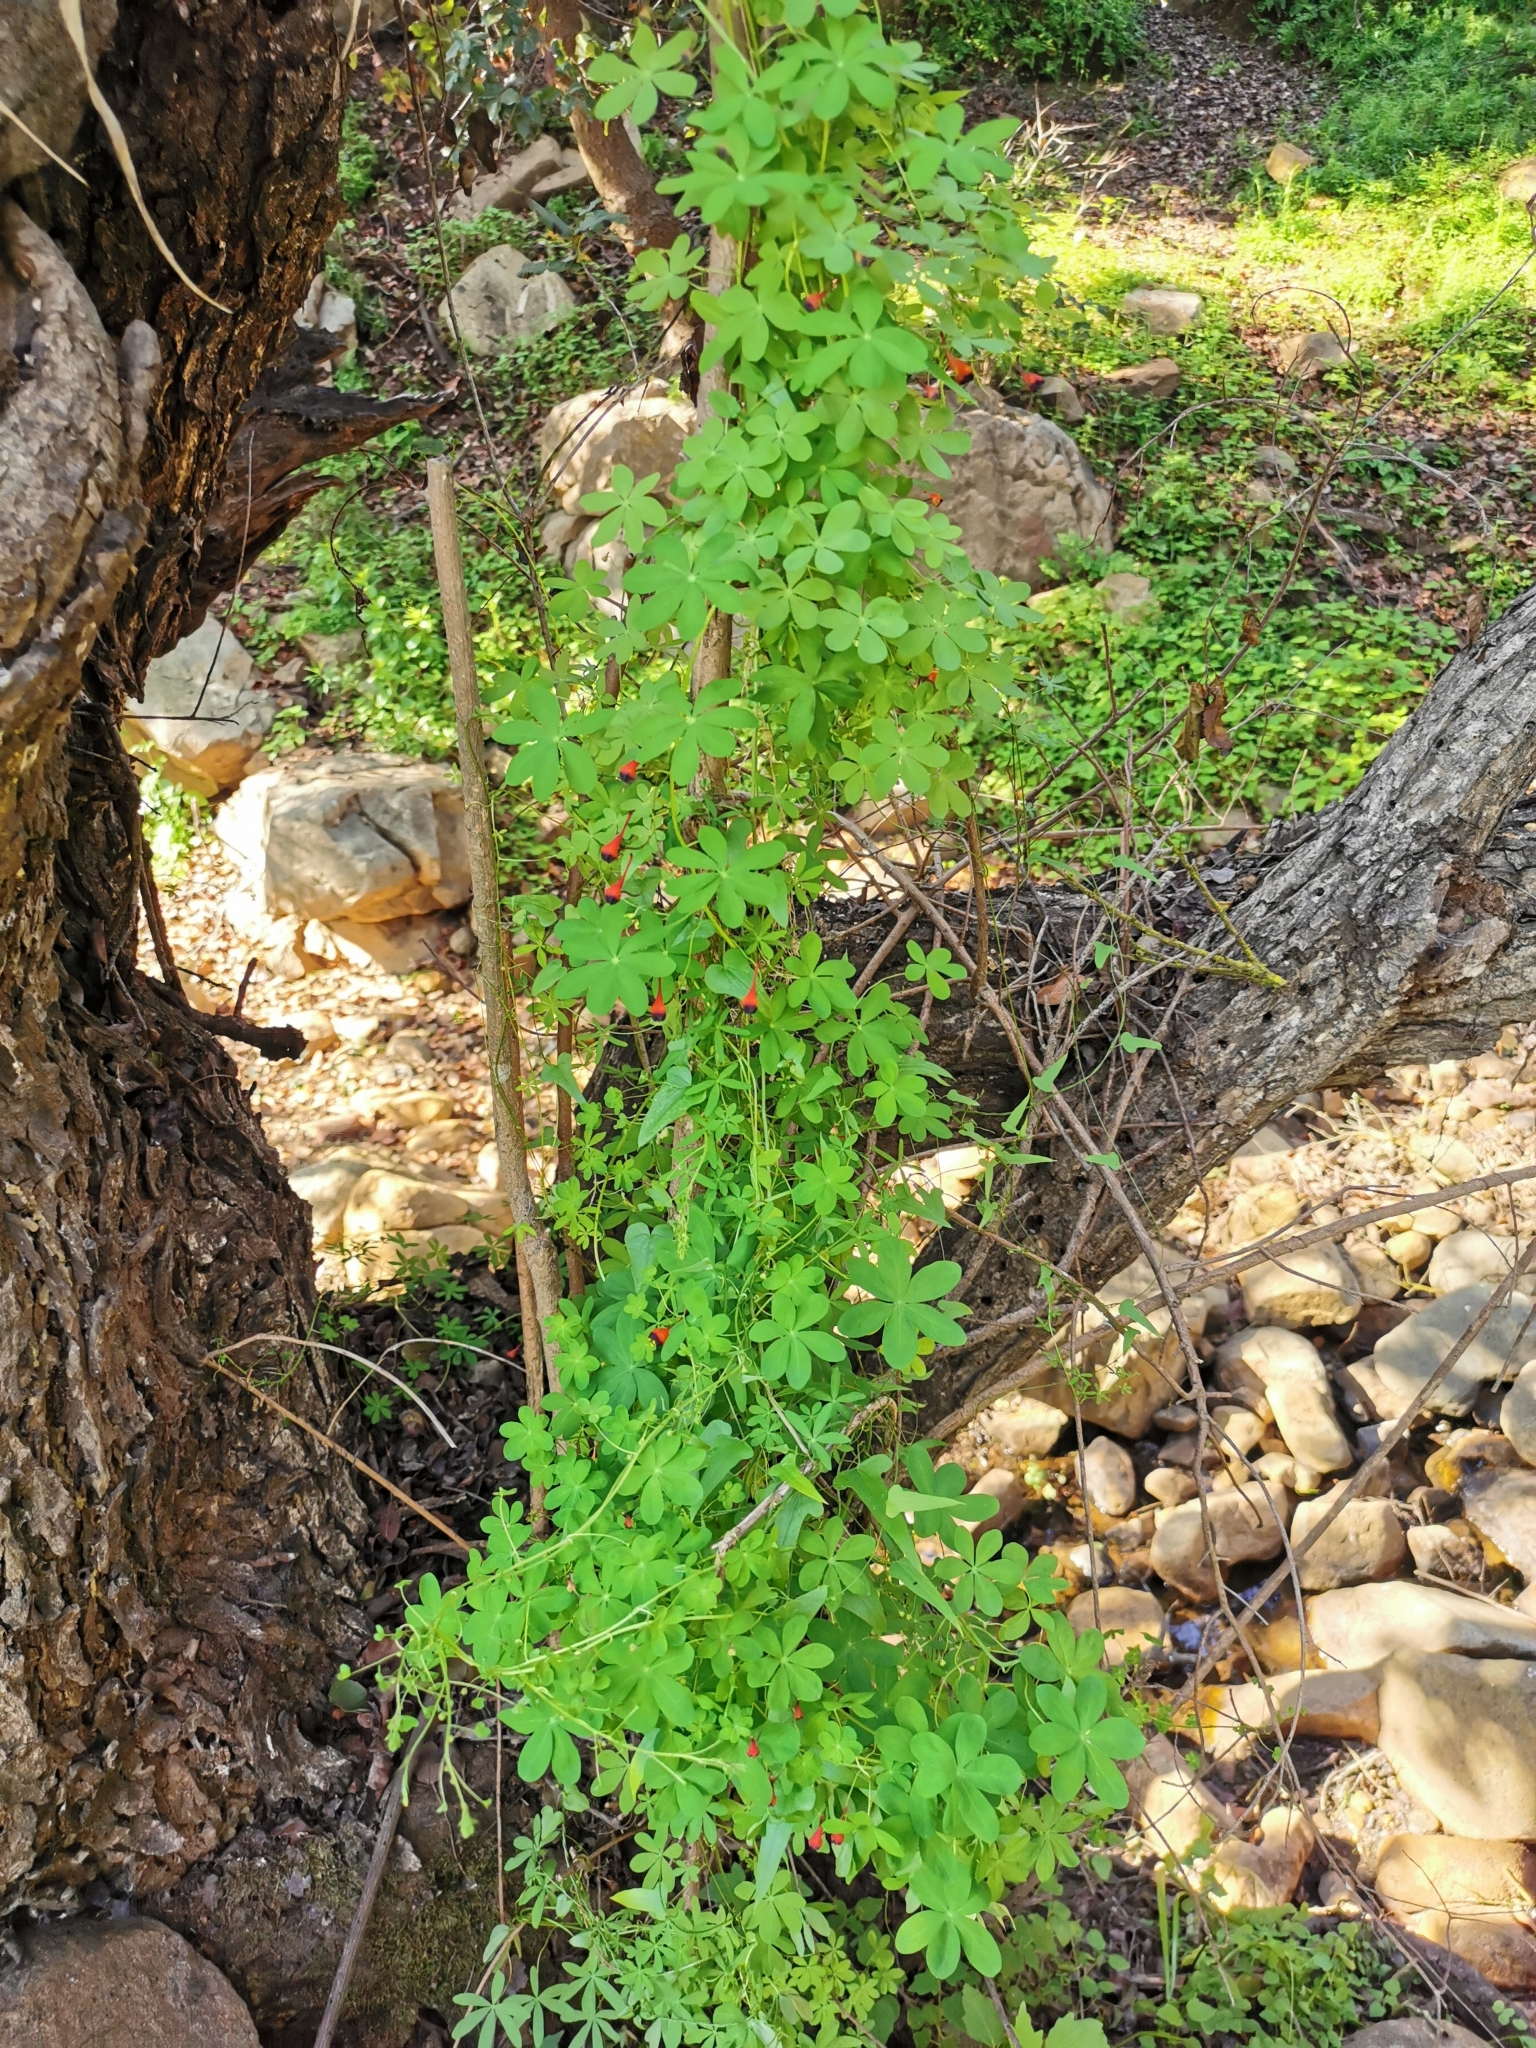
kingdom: Plantae
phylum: Tracheophyta
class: Magnoliopsida
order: Brassicales
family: Tropaeolaceae
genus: Tropaeolum
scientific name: Tropaeolum tricolor
